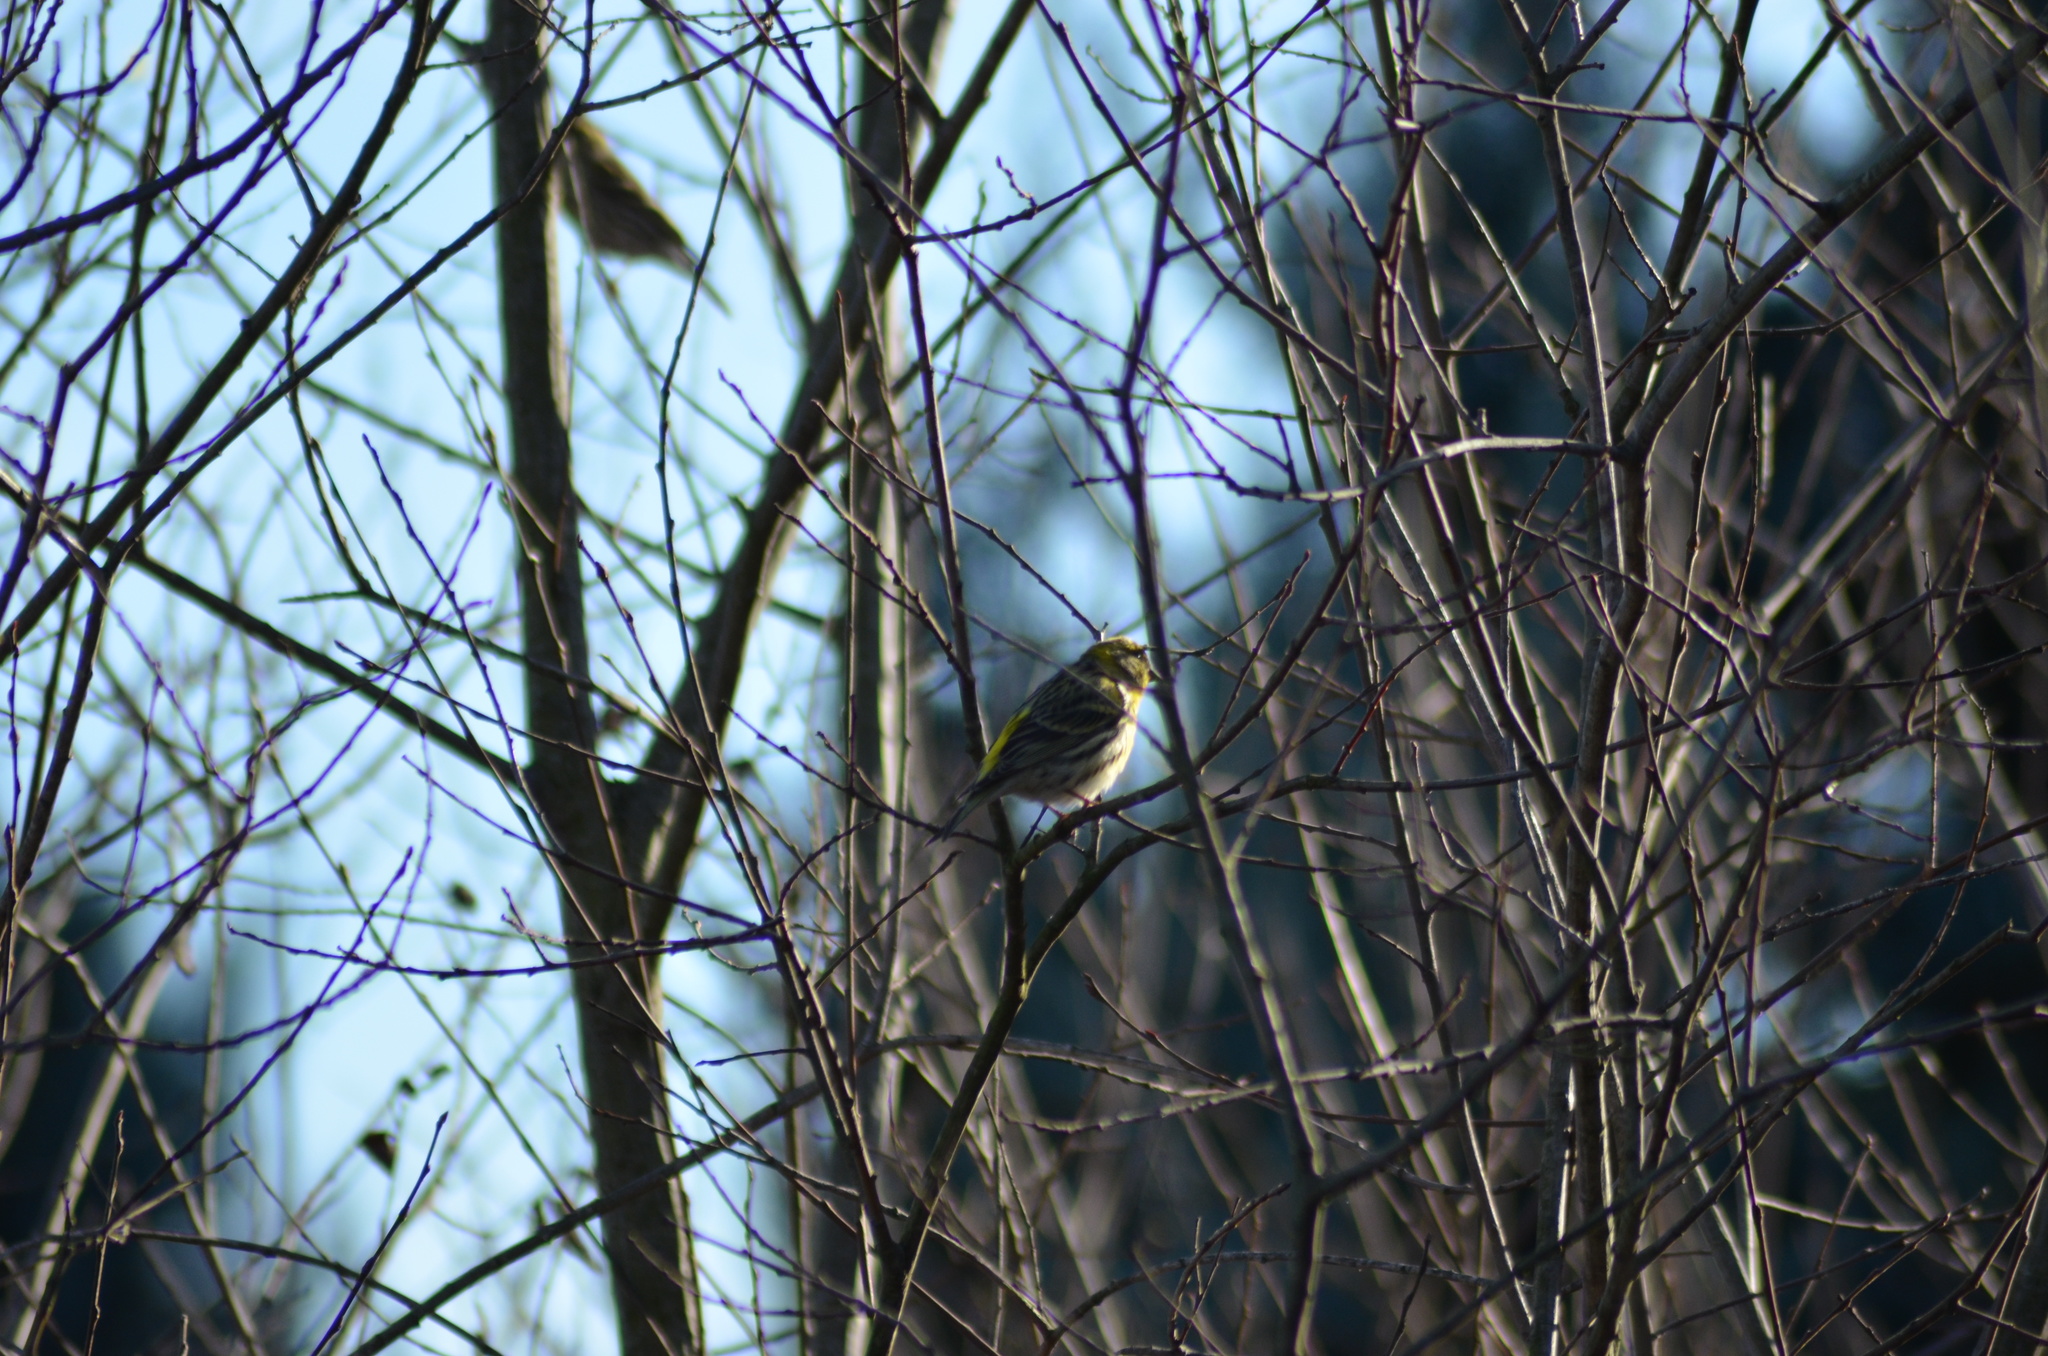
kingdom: Animalia
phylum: Chordata
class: Aves
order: Passeriformes
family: Fringillidae
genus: Serinus
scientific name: Serinus serinus
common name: European serin
